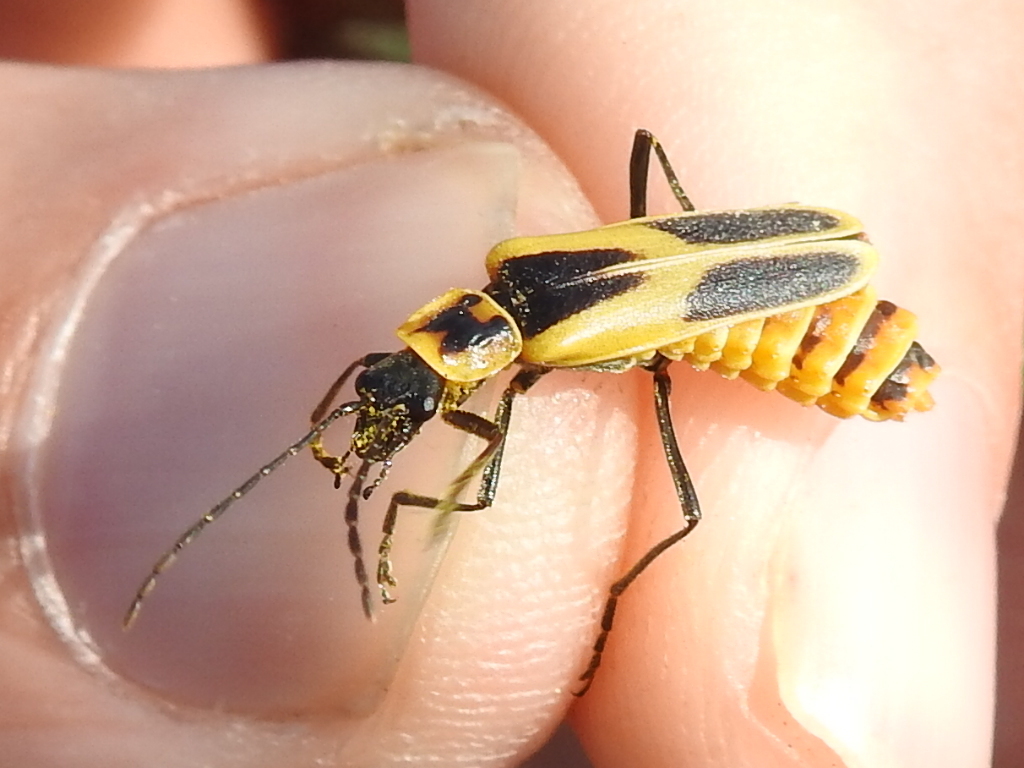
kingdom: Animalia
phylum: Arthropoda
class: Insecta
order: Coleoptera
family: Cantharidae
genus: Chauliognathus
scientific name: Chauliognathus scutellaris
